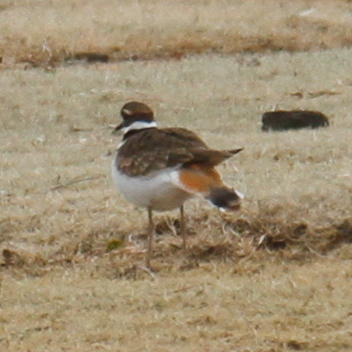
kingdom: Animalia
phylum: Chordata
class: Aves
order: Charadriiformes
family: Charadriidae
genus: Charadrius
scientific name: Charadrius vociferus
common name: Killdeer
